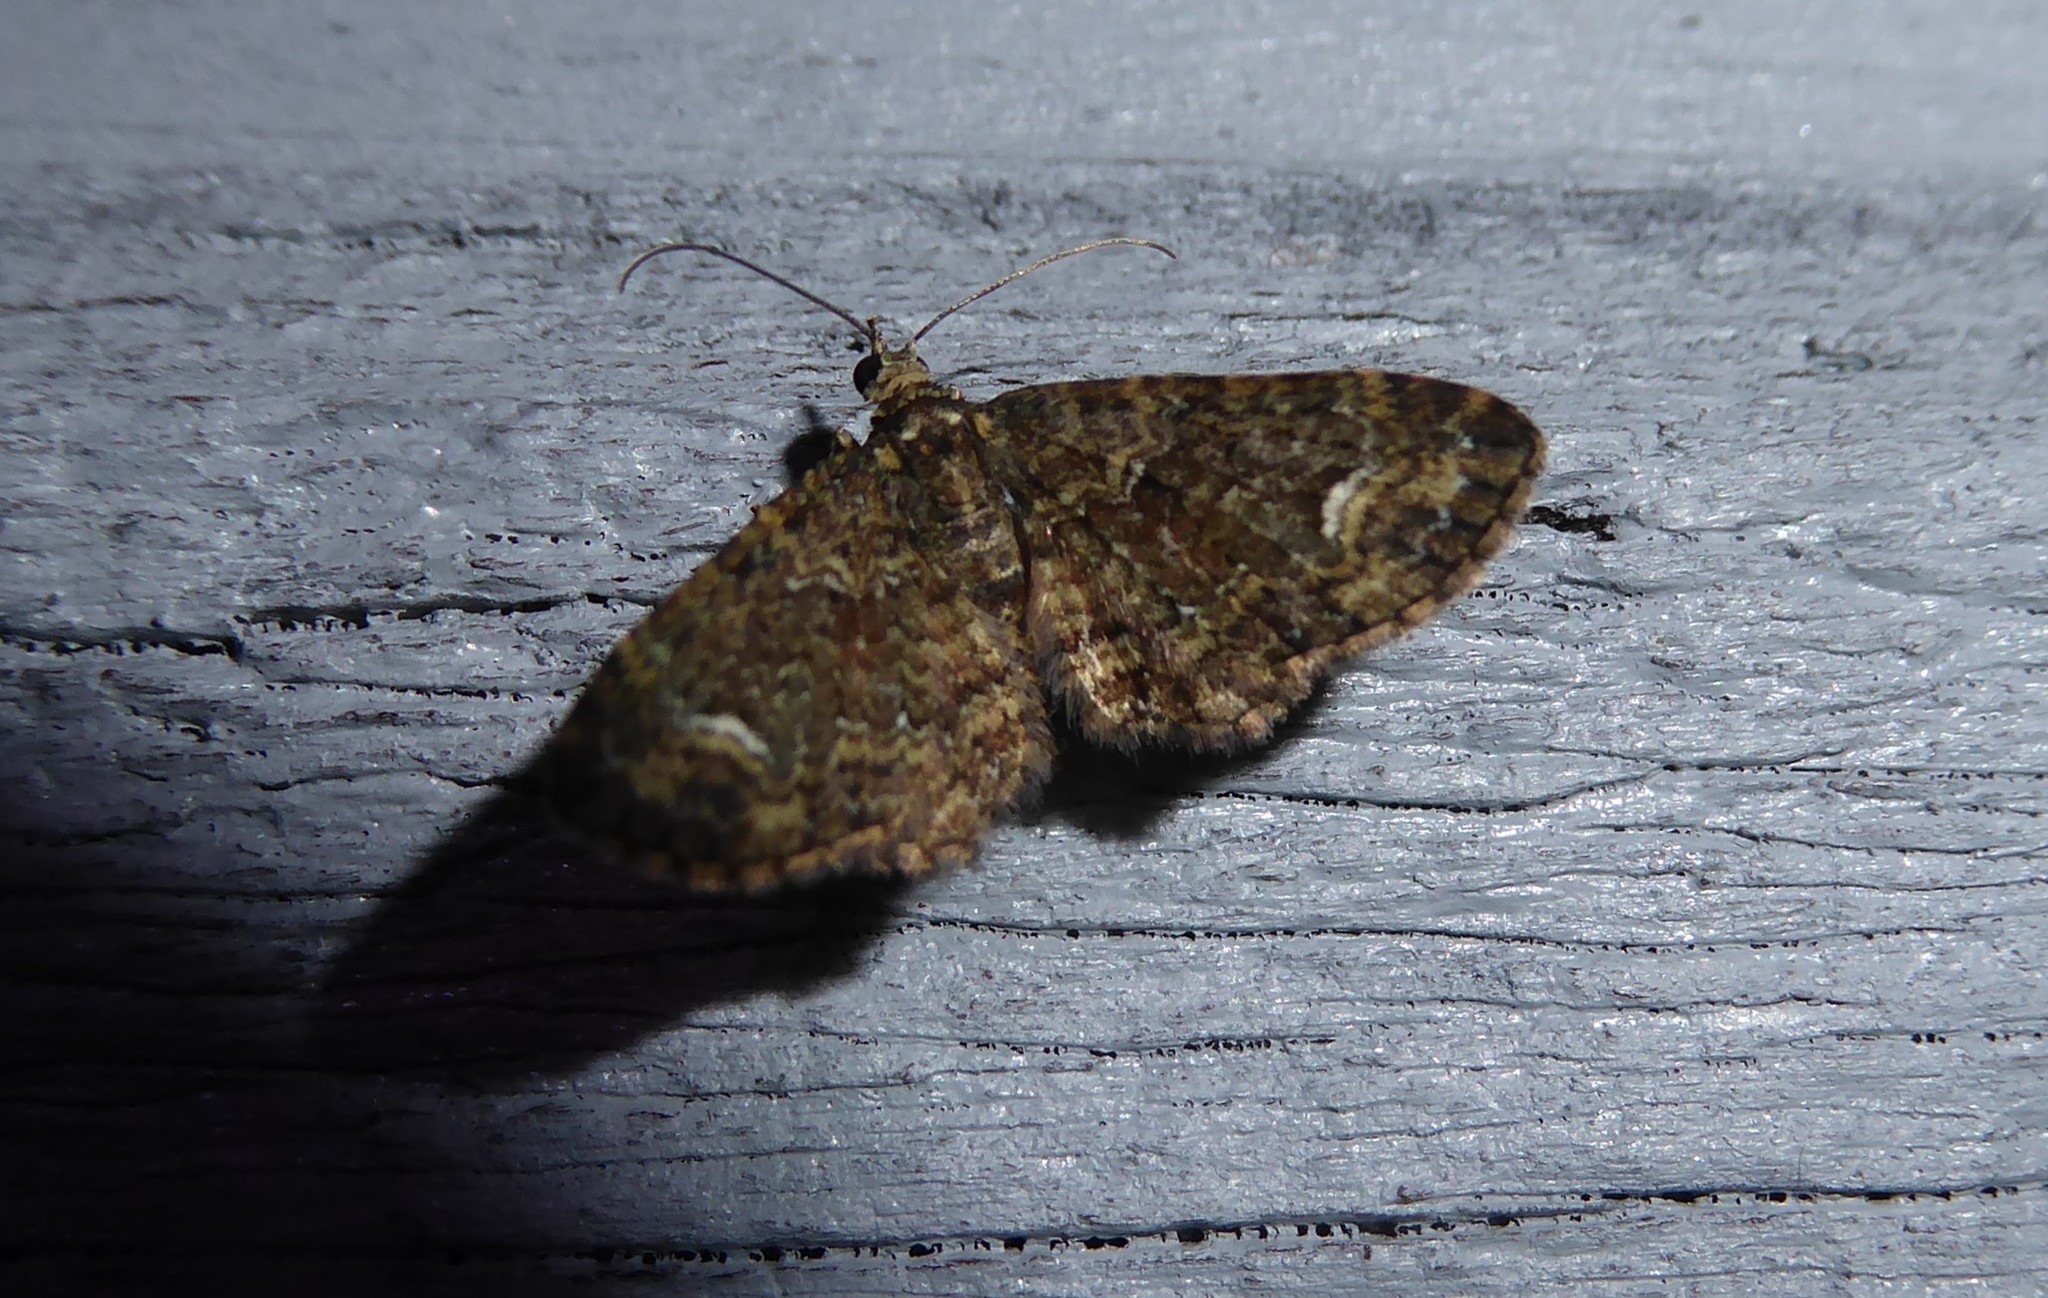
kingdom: Animalia
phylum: Arthropoda
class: Insecta
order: Lepidoptera
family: Geometridae
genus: Pasiphilodes
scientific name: Pasiphilodes testulata
